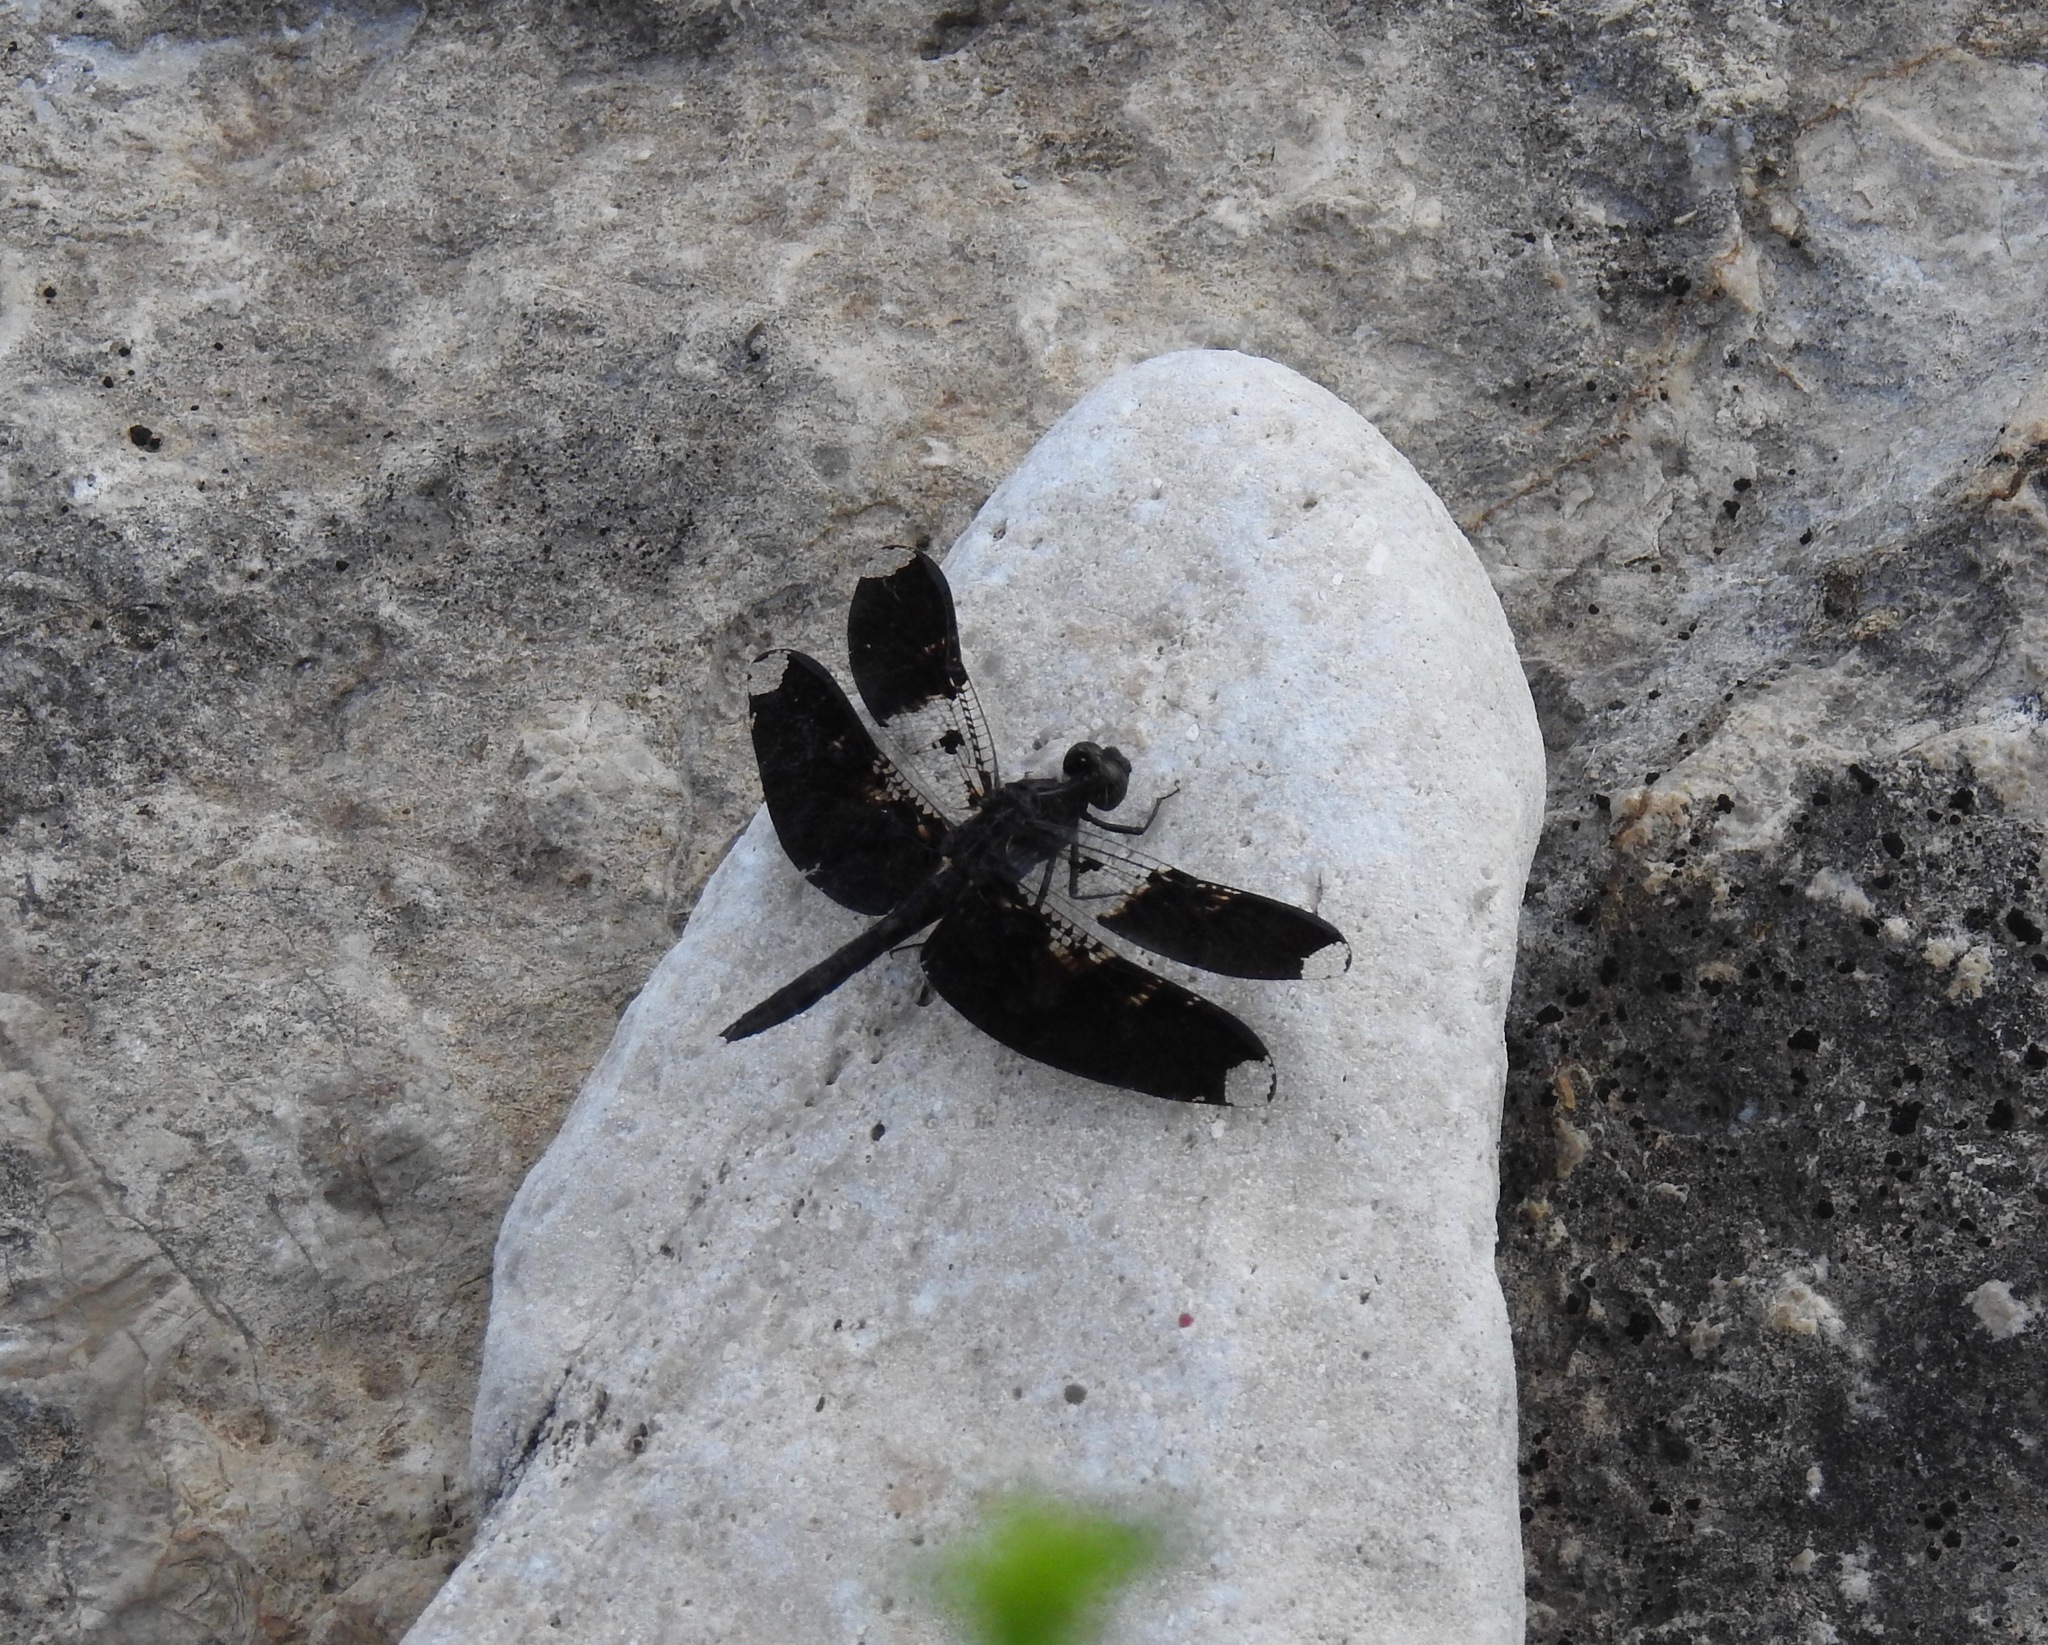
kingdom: Animalia
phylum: Arthropoda
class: Insecta
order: Odonata
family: Libellulidae
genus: Pseudoleon
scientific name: Pseudoleon superbus
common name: Filigree skimmer
